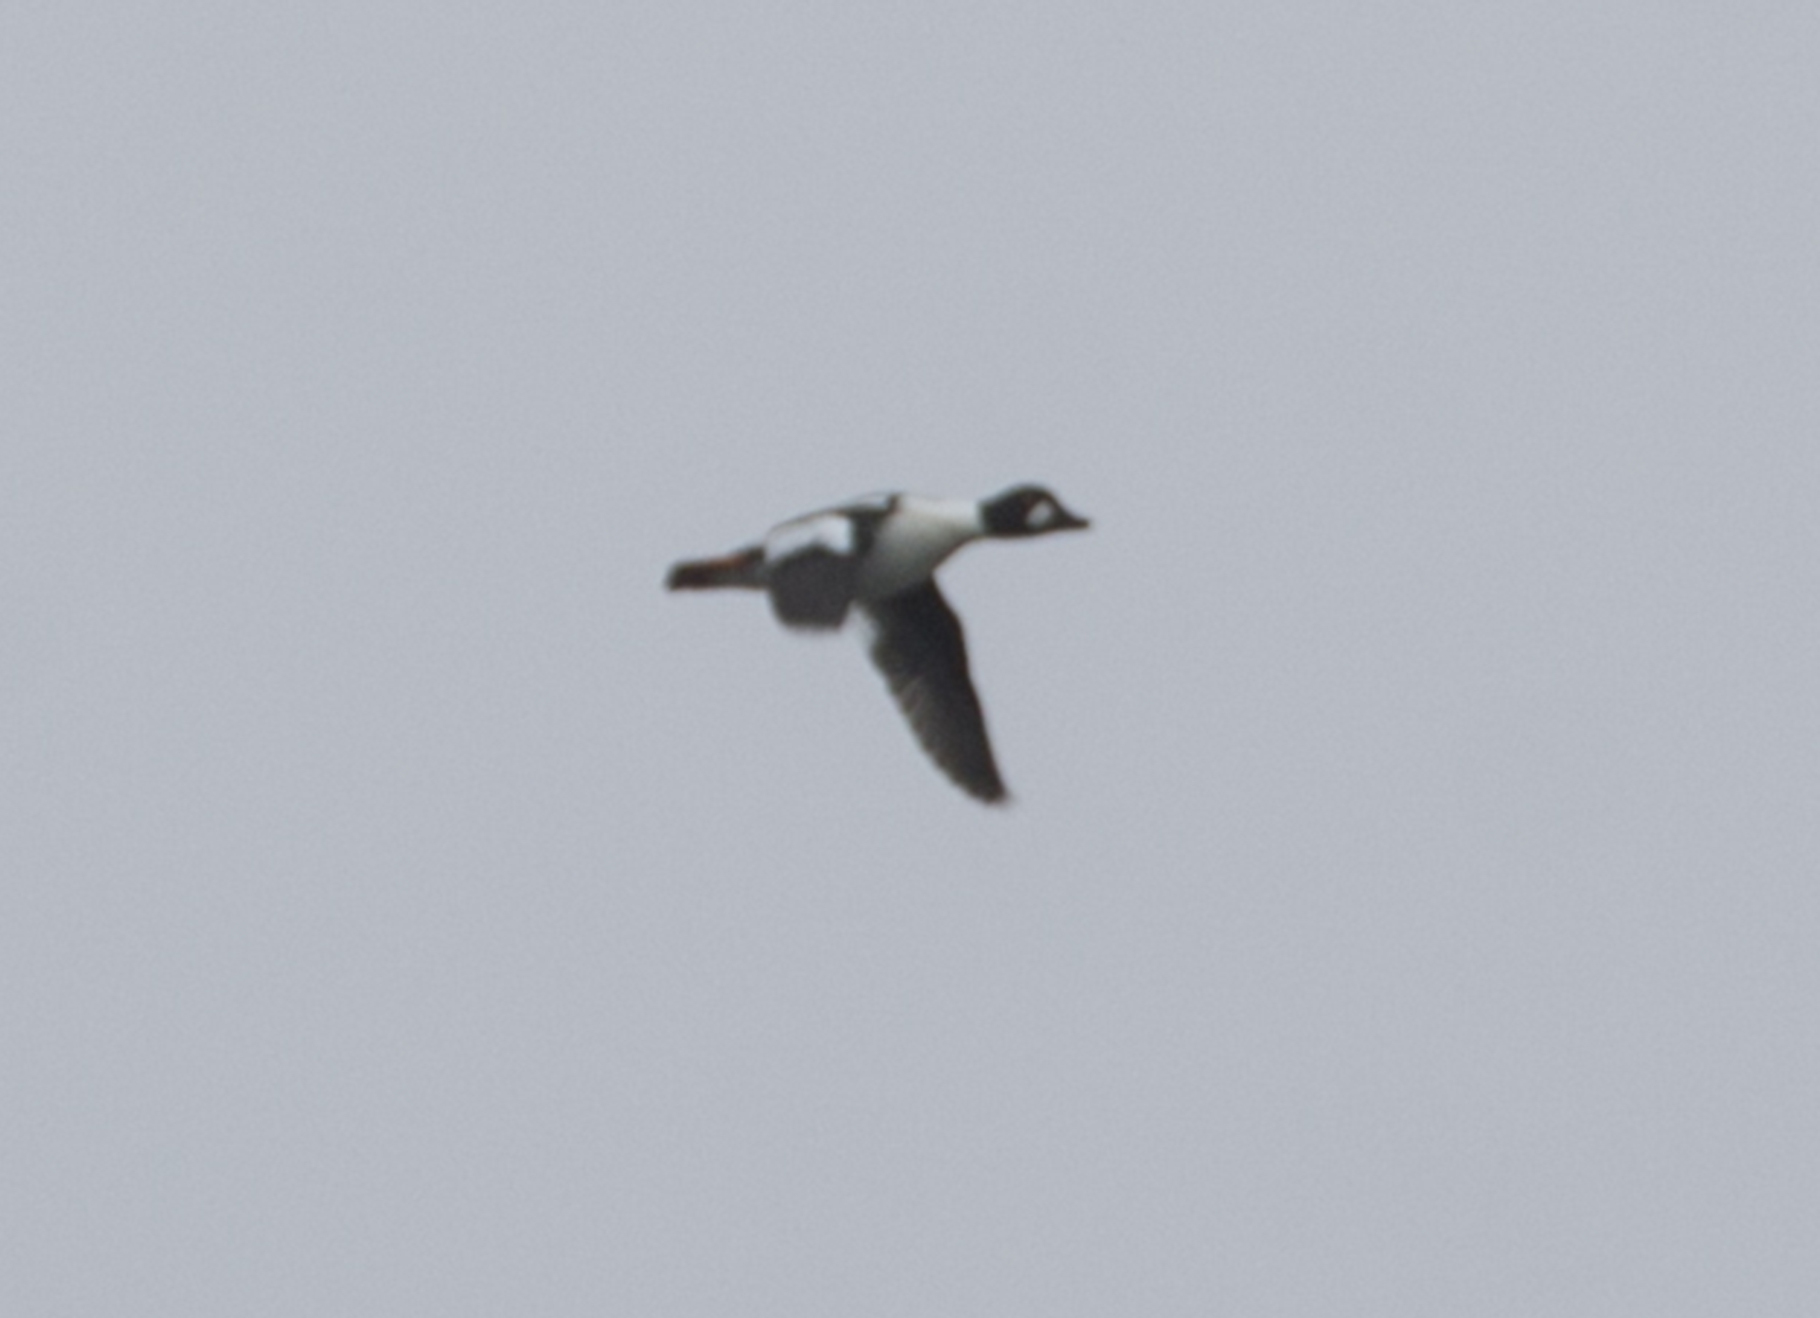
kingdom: Animalia
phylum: Chordata
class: Aves
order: Anseriformes
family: Anatidae
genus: Bucephala
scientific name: Bucephala clangula
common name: Common goldeneye
